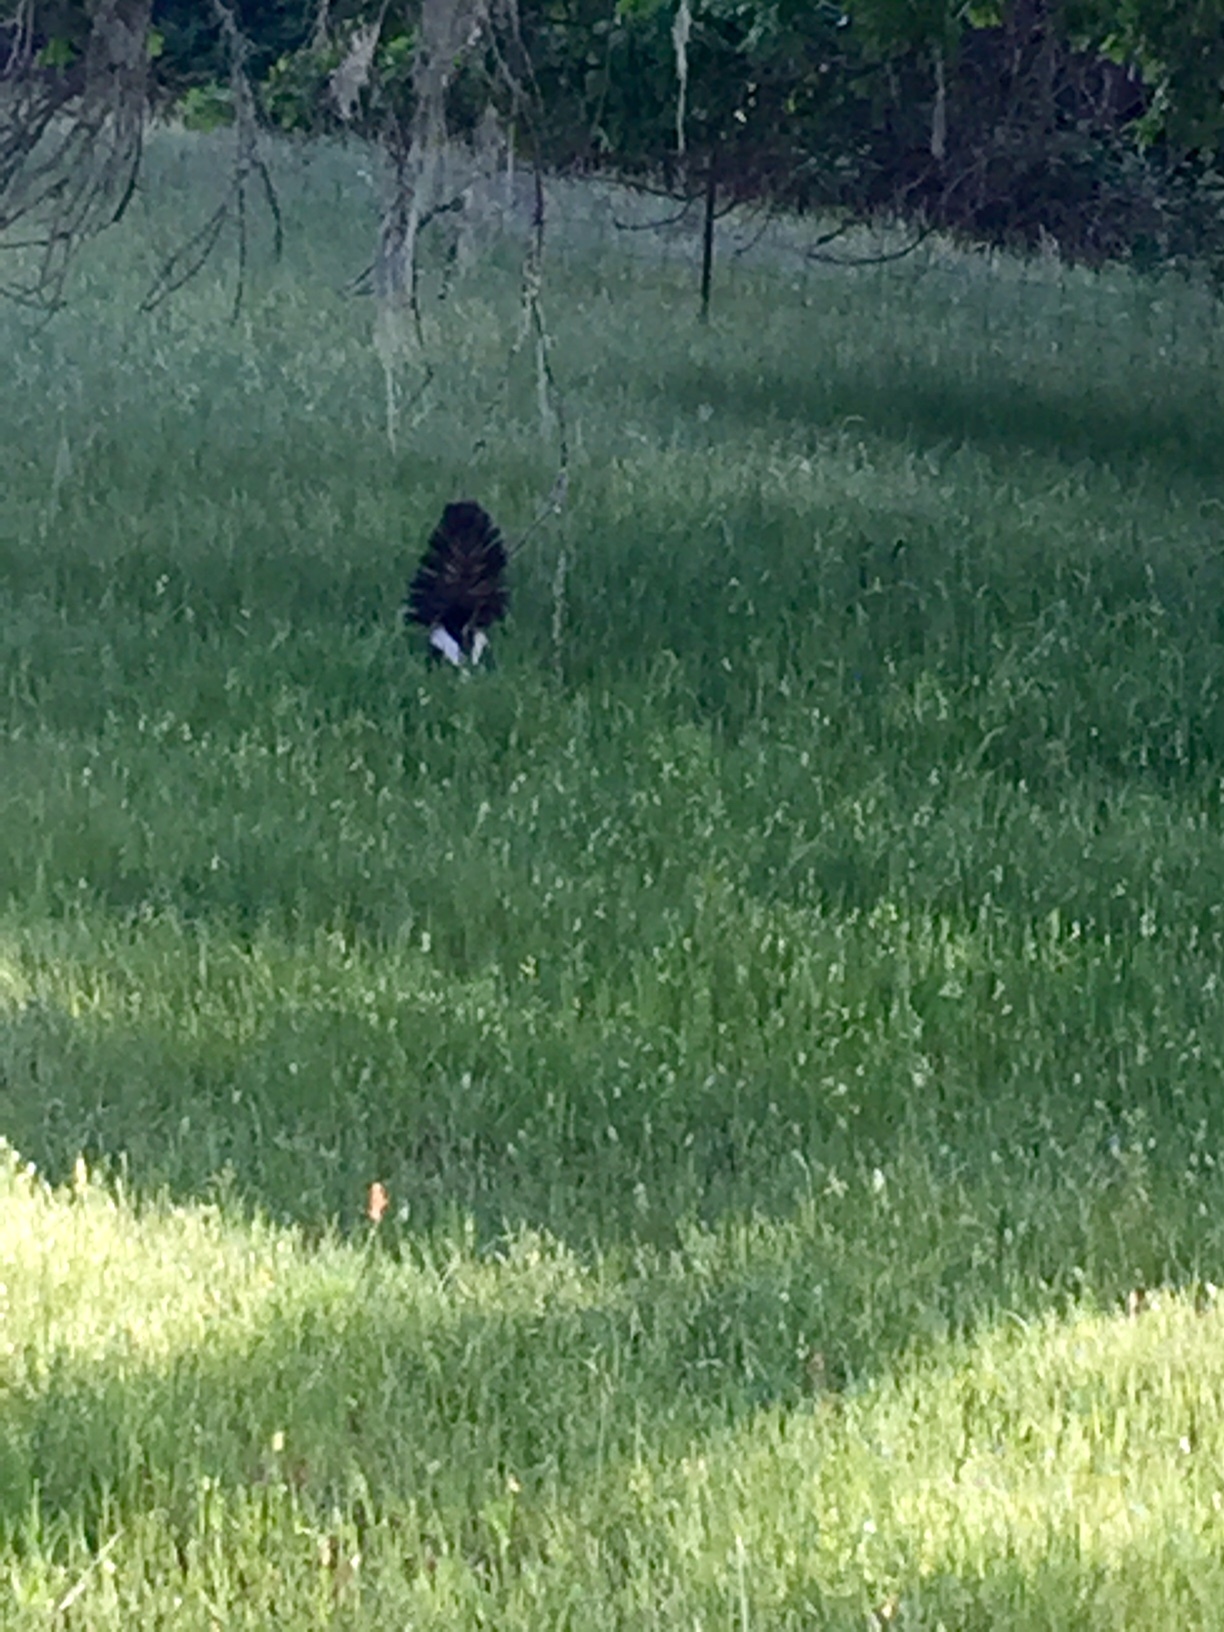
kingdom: Animalia
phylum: Chordata
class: Mammalia
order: Carnivora
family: Mephitidae
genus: Mephitis
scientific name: Mephitis mephitis
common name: Striped skunk
